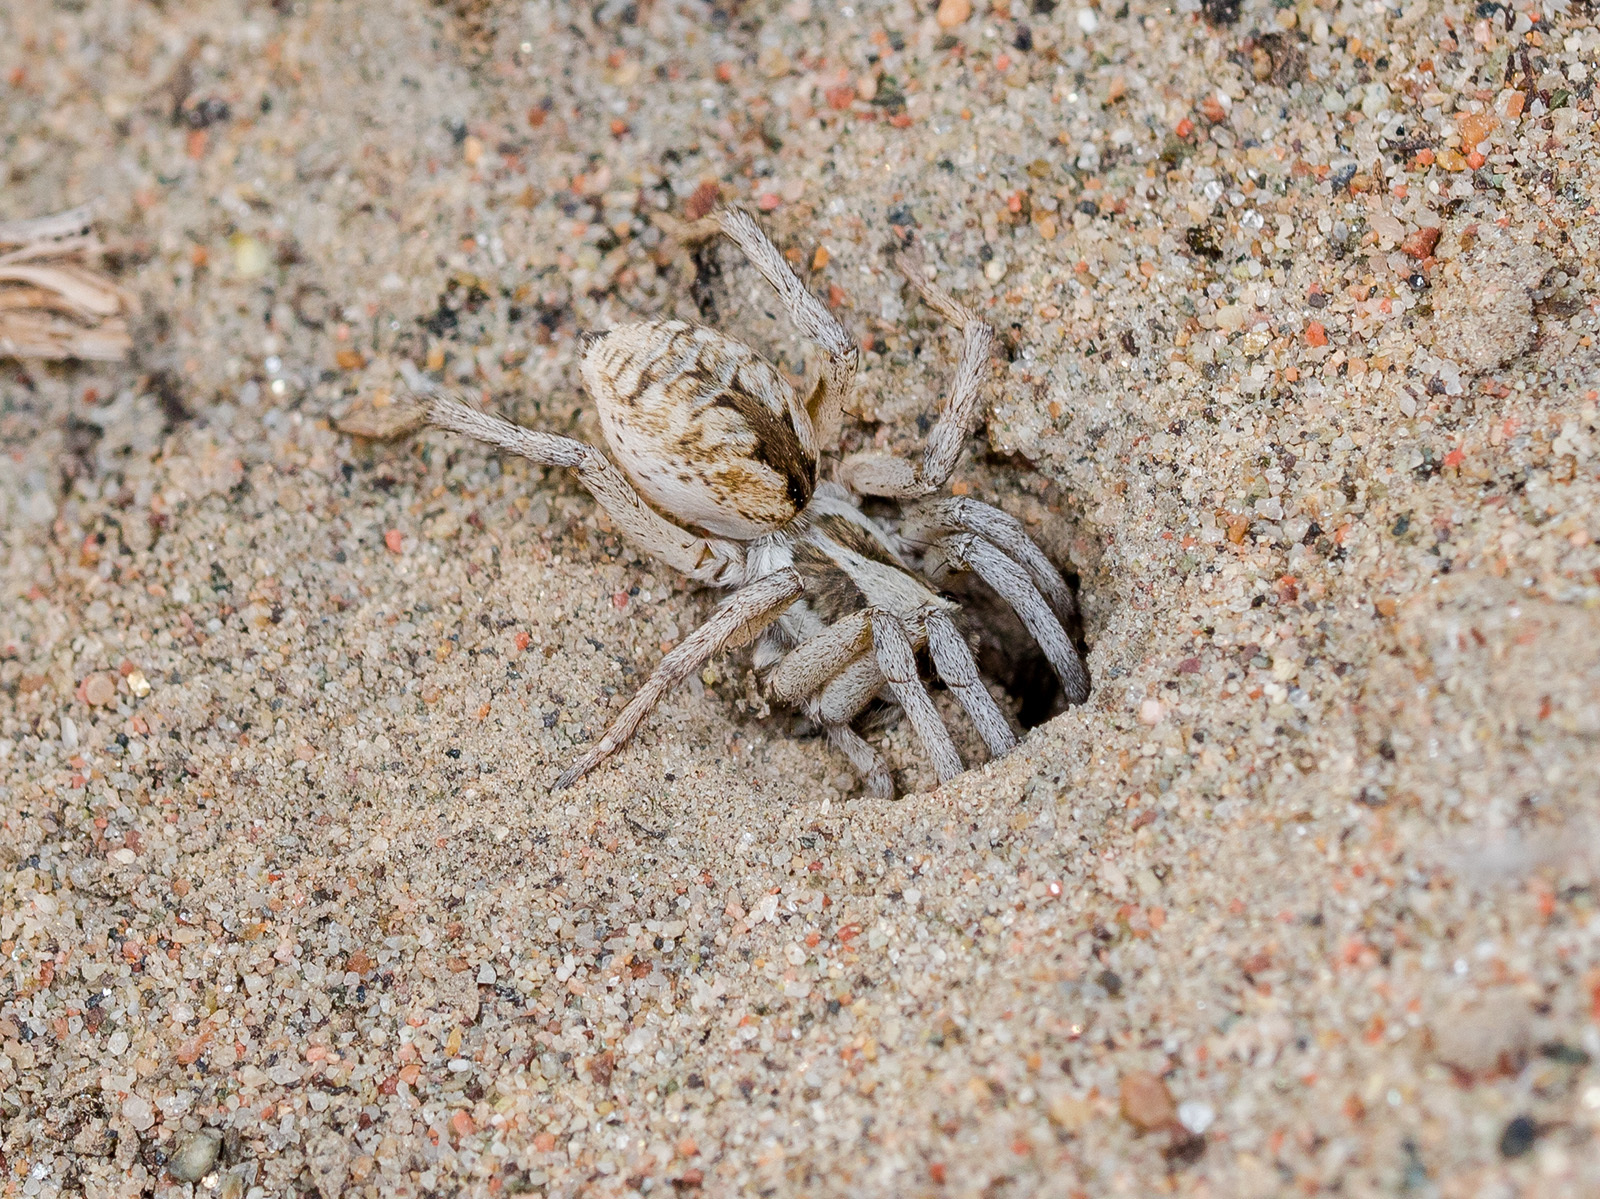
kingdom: Animalia
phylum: Arthropoda
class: Arachnida
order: Araneae
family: Lycosidae
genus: Karakumosa
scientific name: Karakumosa alticeps
